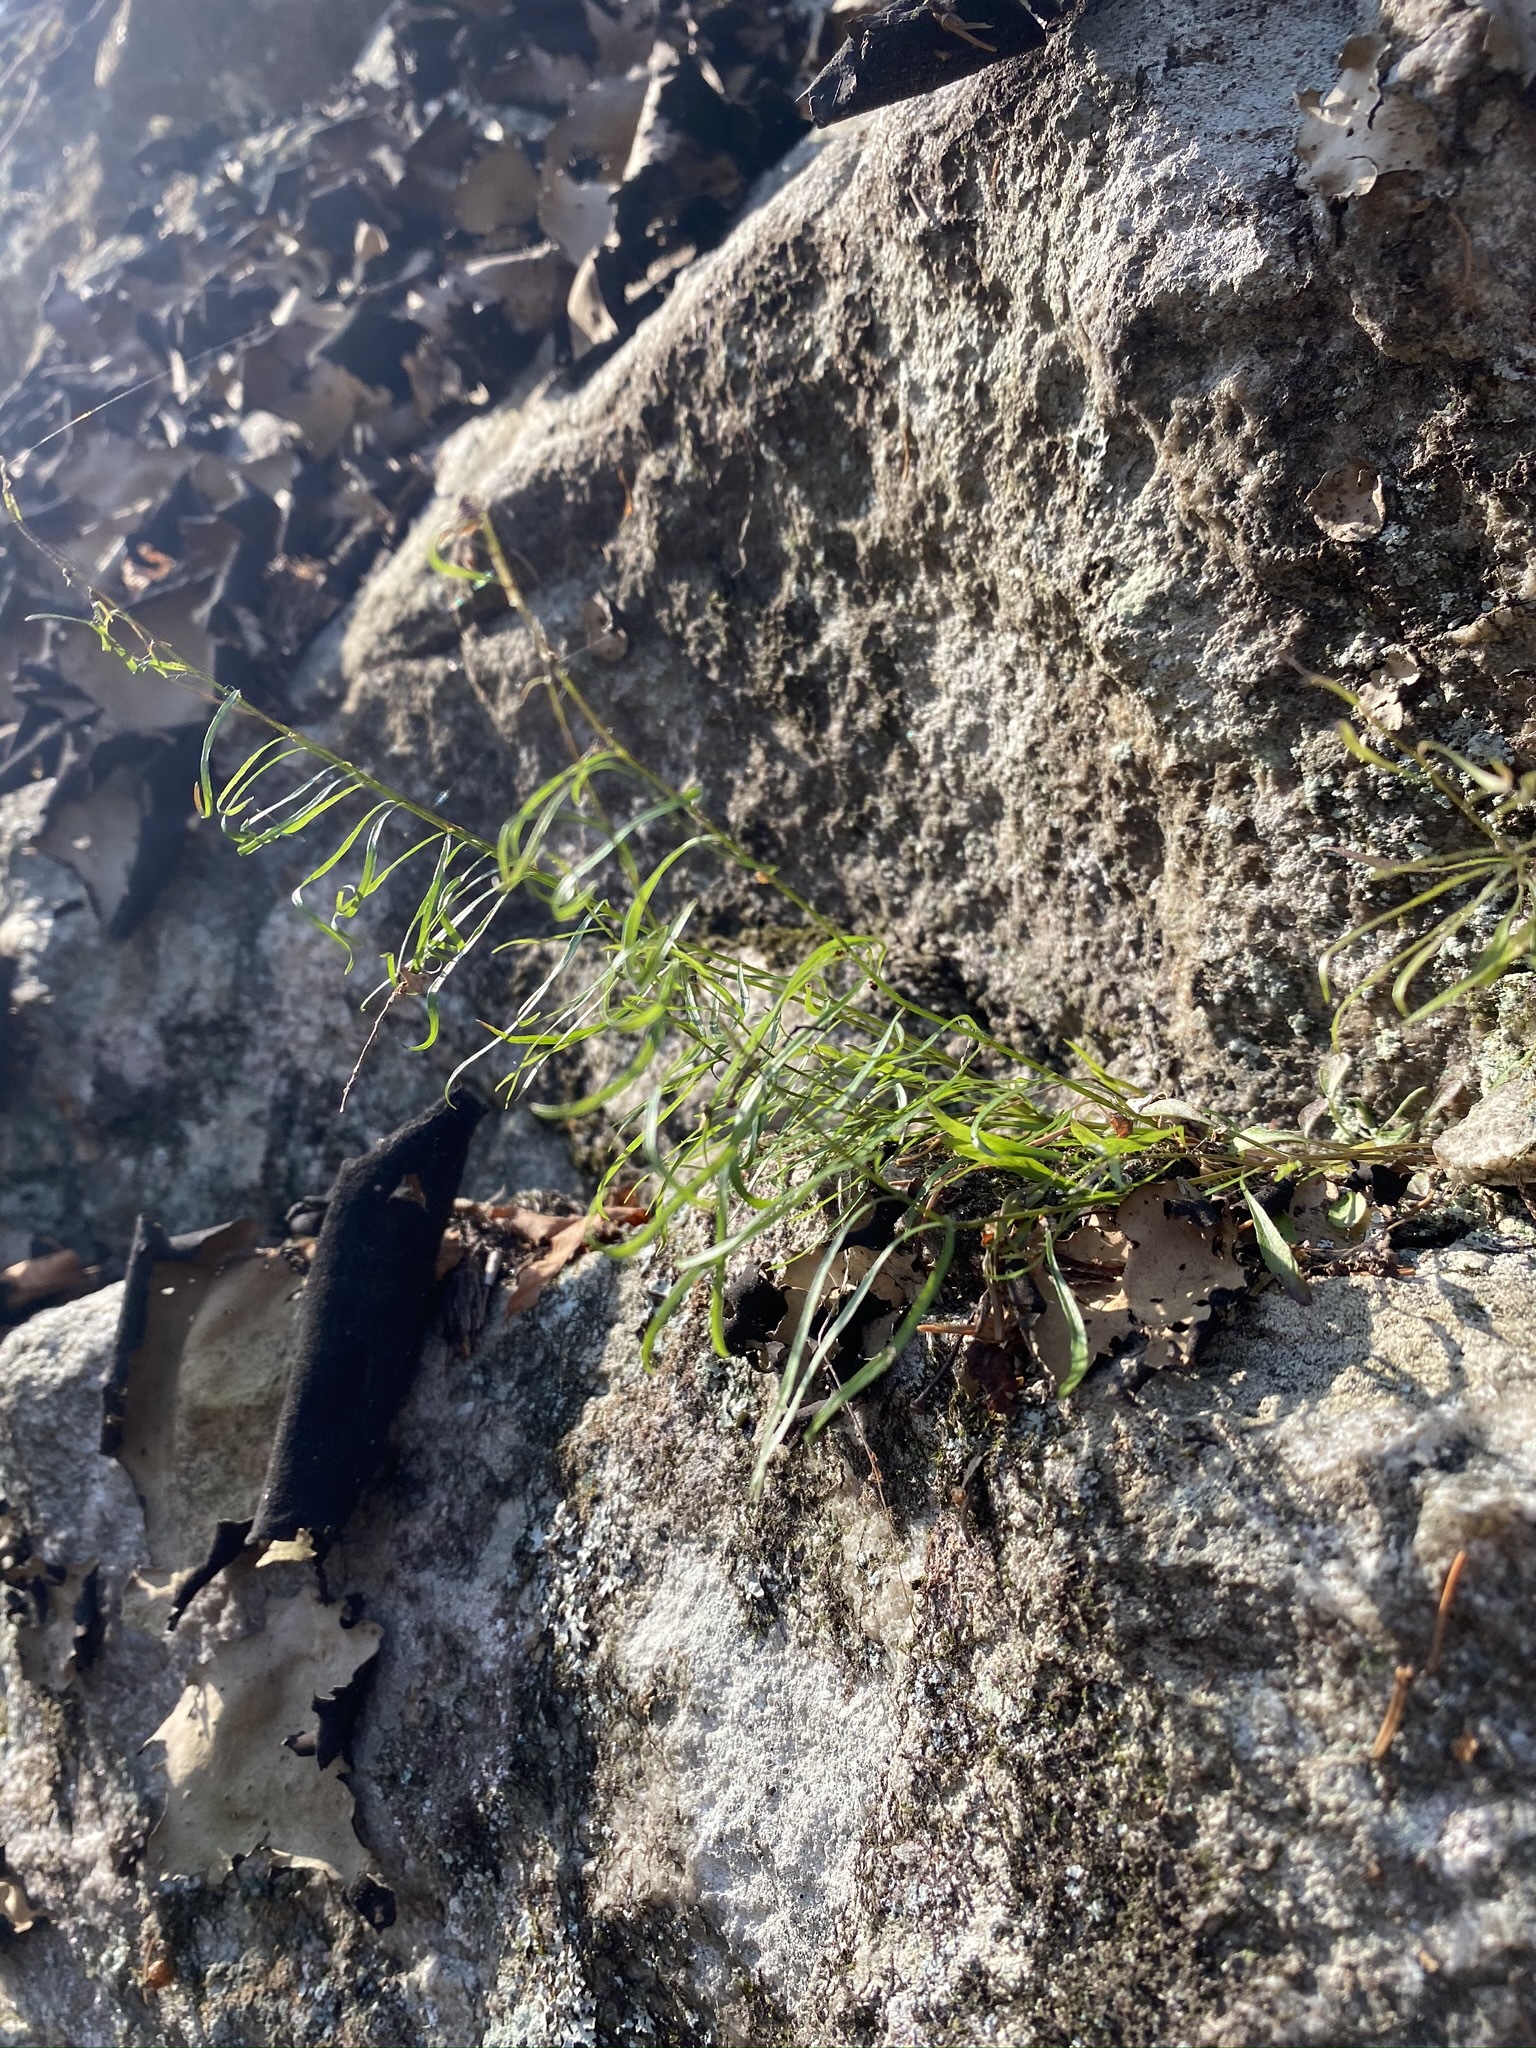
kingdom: Plantae
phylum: Tracheophyta
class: Magnoliopsida
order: Asterales
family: Campanulaceae
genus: Campanula
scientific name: Campanula intercedens
